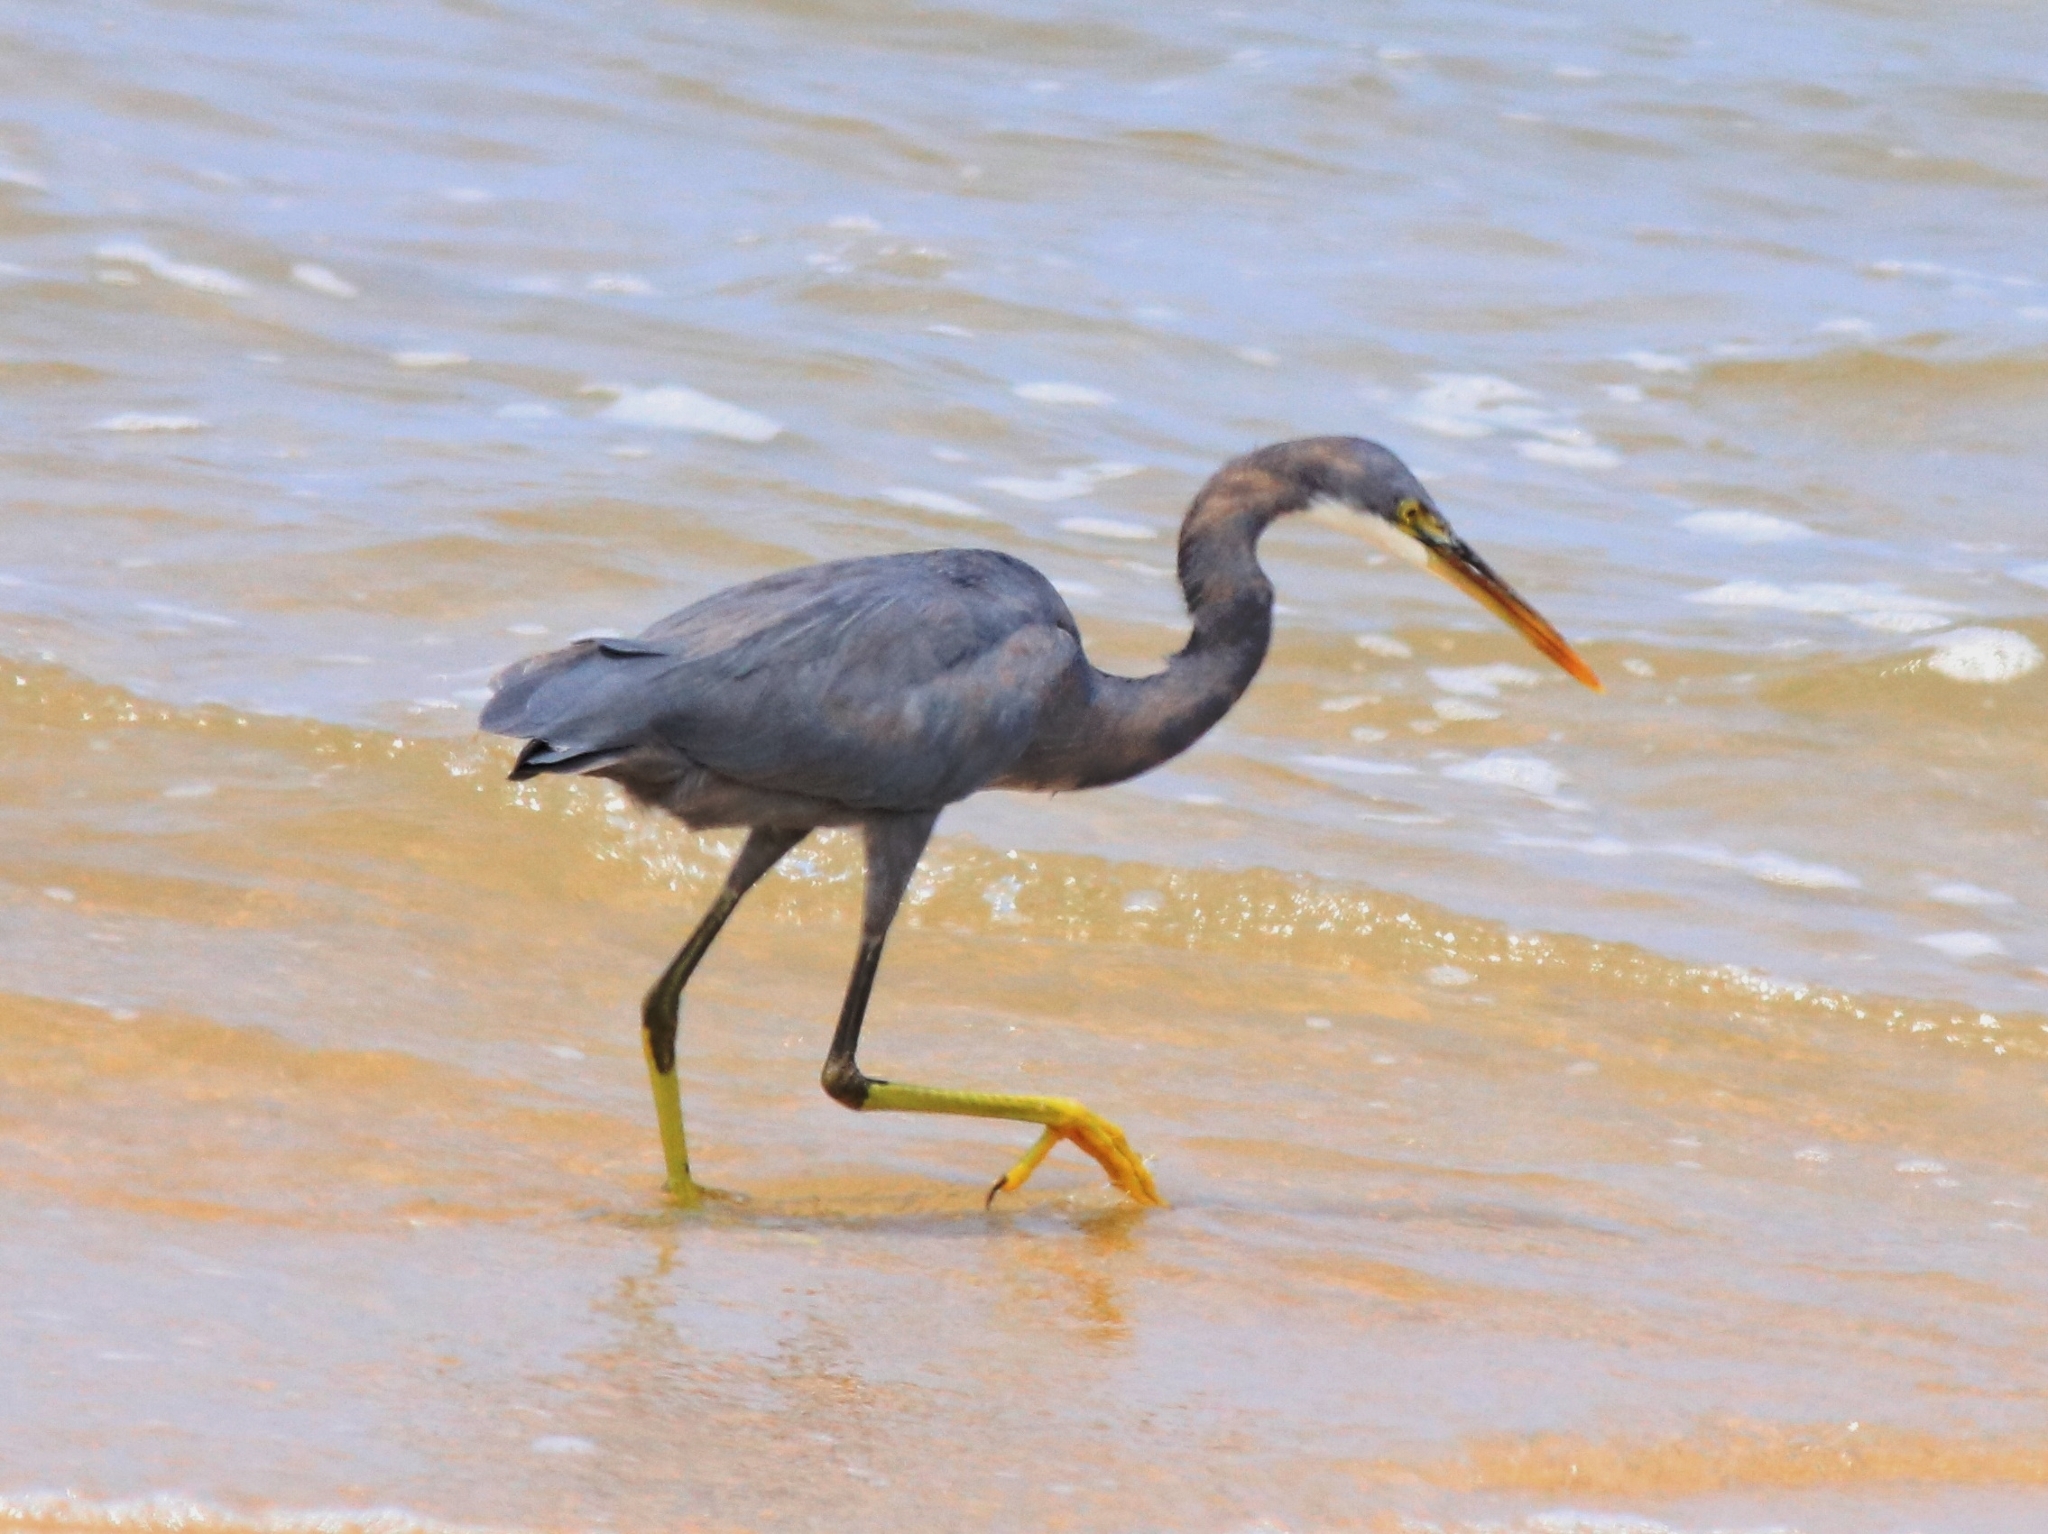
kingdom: Animalia
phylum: Chordata
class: Aves
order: Pelecaniformes
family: Ardeidae
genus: Egretta
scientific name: Egretta gularis
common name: Western reef-heron
